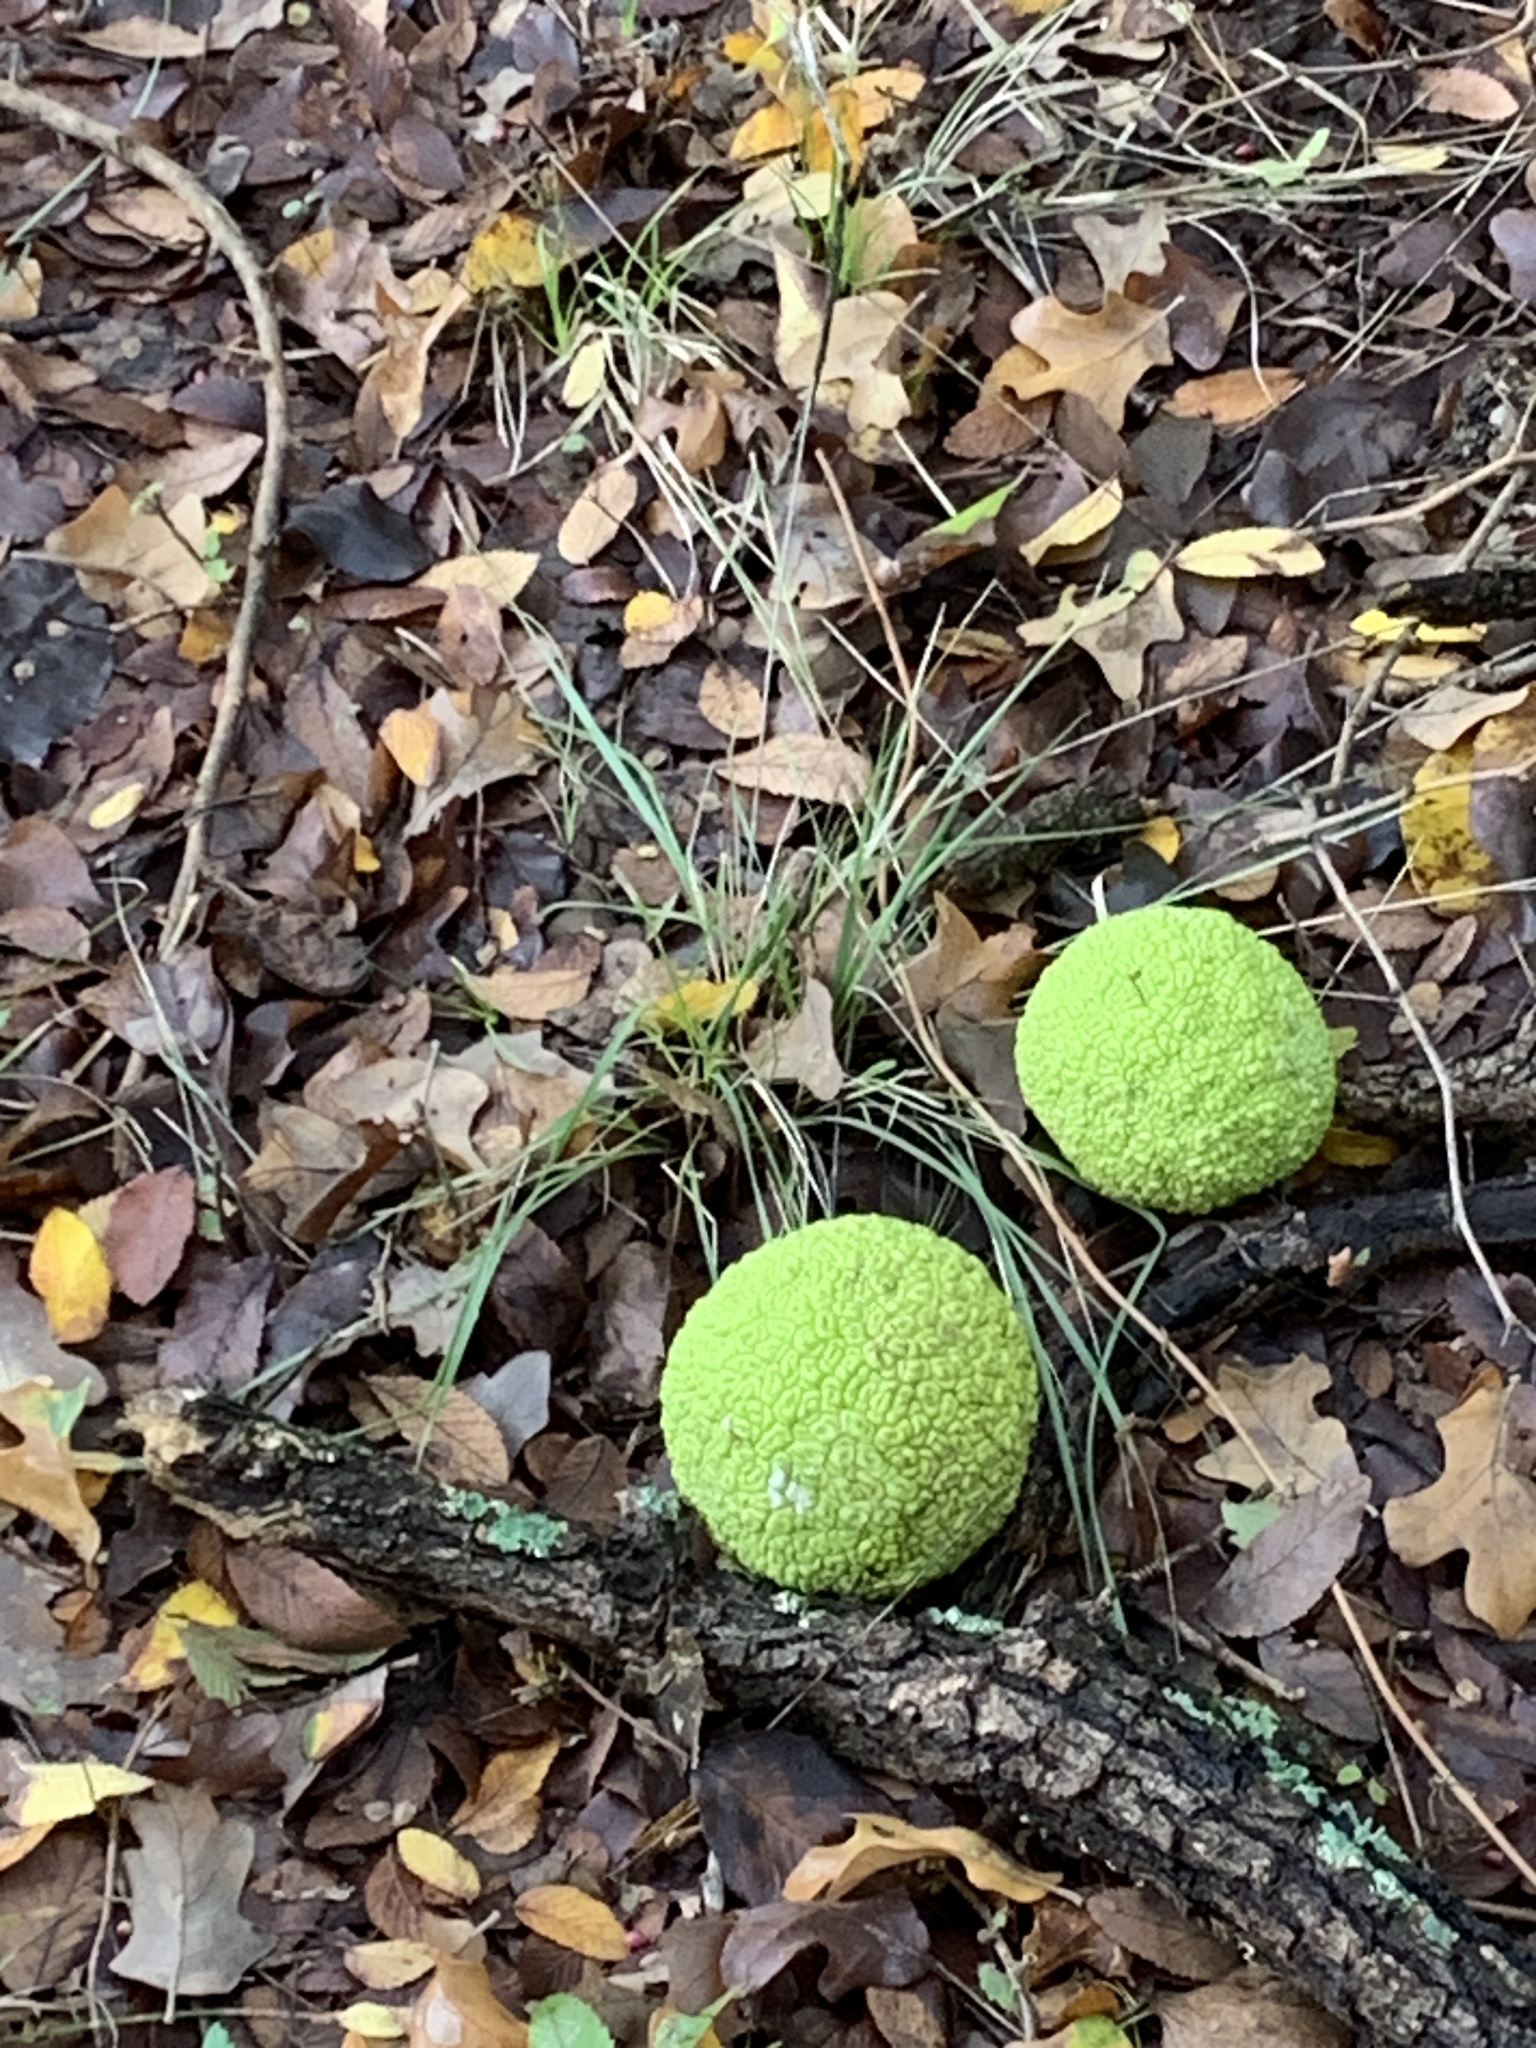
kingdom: Plantae
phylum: Tracheophyta
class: Magnoliopsida
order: Rosales
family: Moraceae
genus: Maclura
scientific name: Maclura pomifera
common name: Osage-orange
